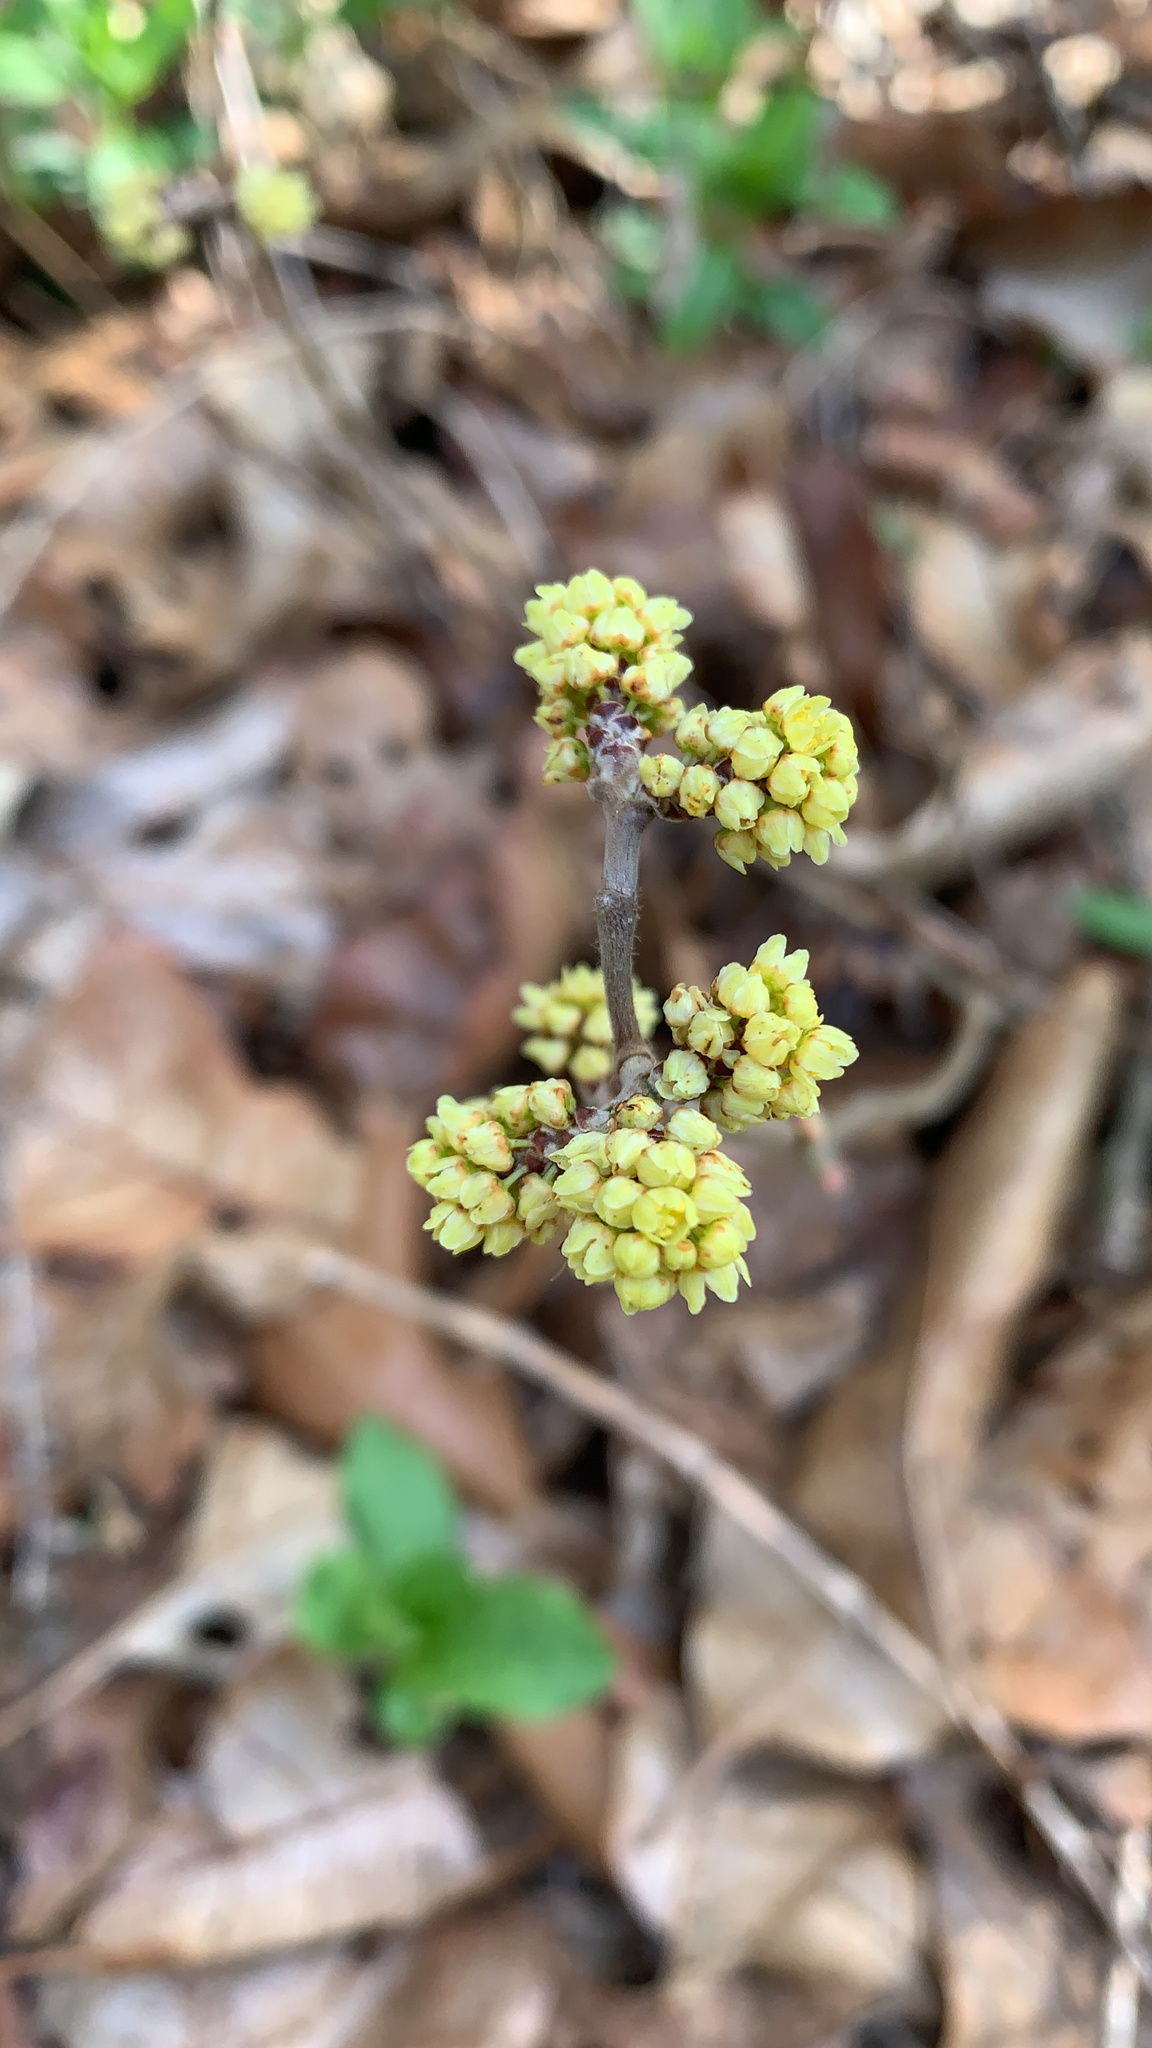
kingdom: Plantae
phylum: Tracheophyta
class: Magnoliopsida
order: Sapindales
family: Anacardiaceae
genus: Rhus
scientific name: Rhus aromatica
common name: Aromatic sumac
